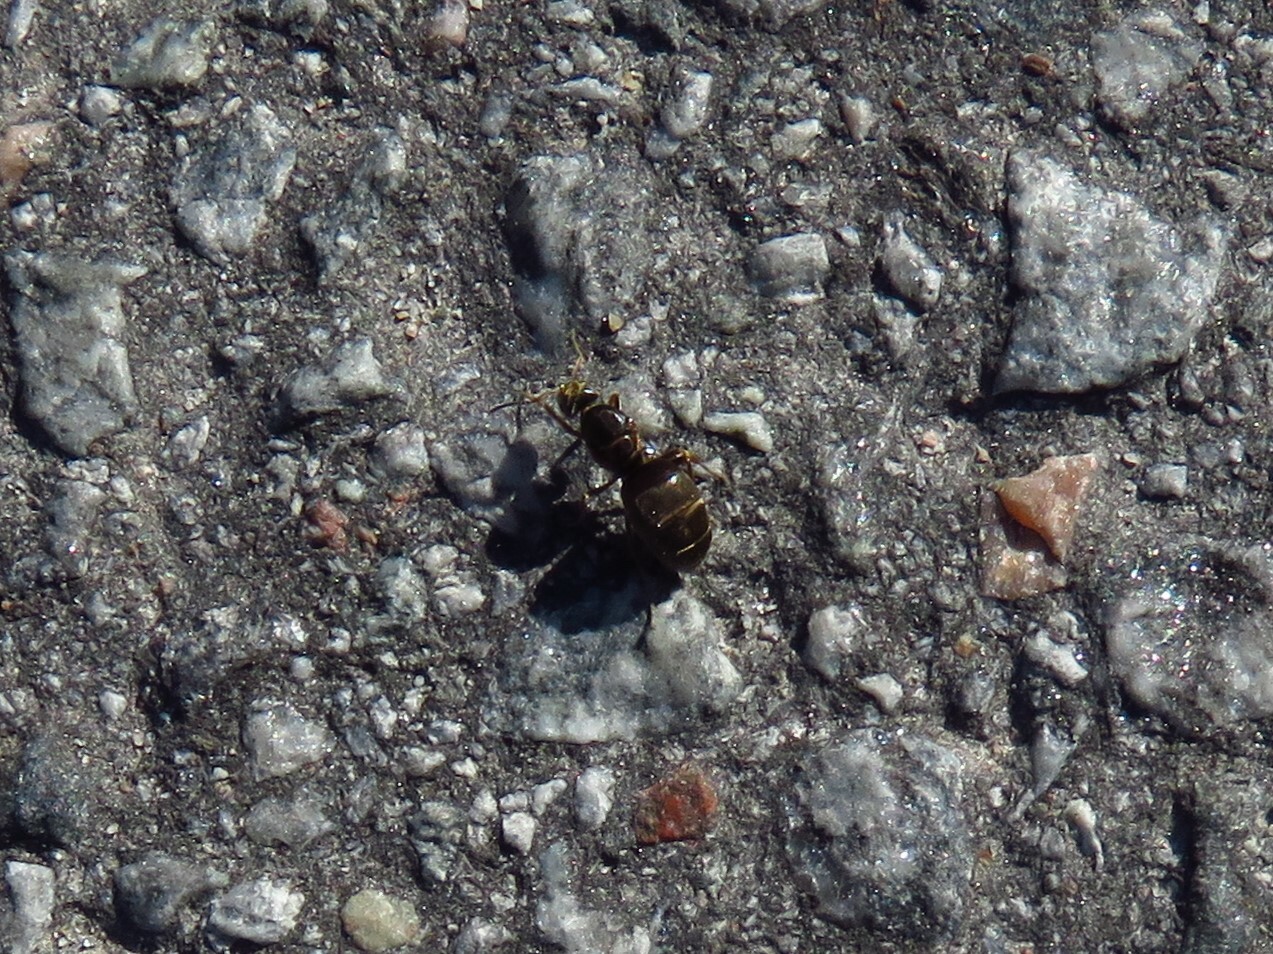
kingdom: Animalia
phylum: Arthropoda
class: Insecta
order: Hymenoptera
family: Formicidae
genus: Lasius
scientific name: Lasius niger
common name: Small black ant
